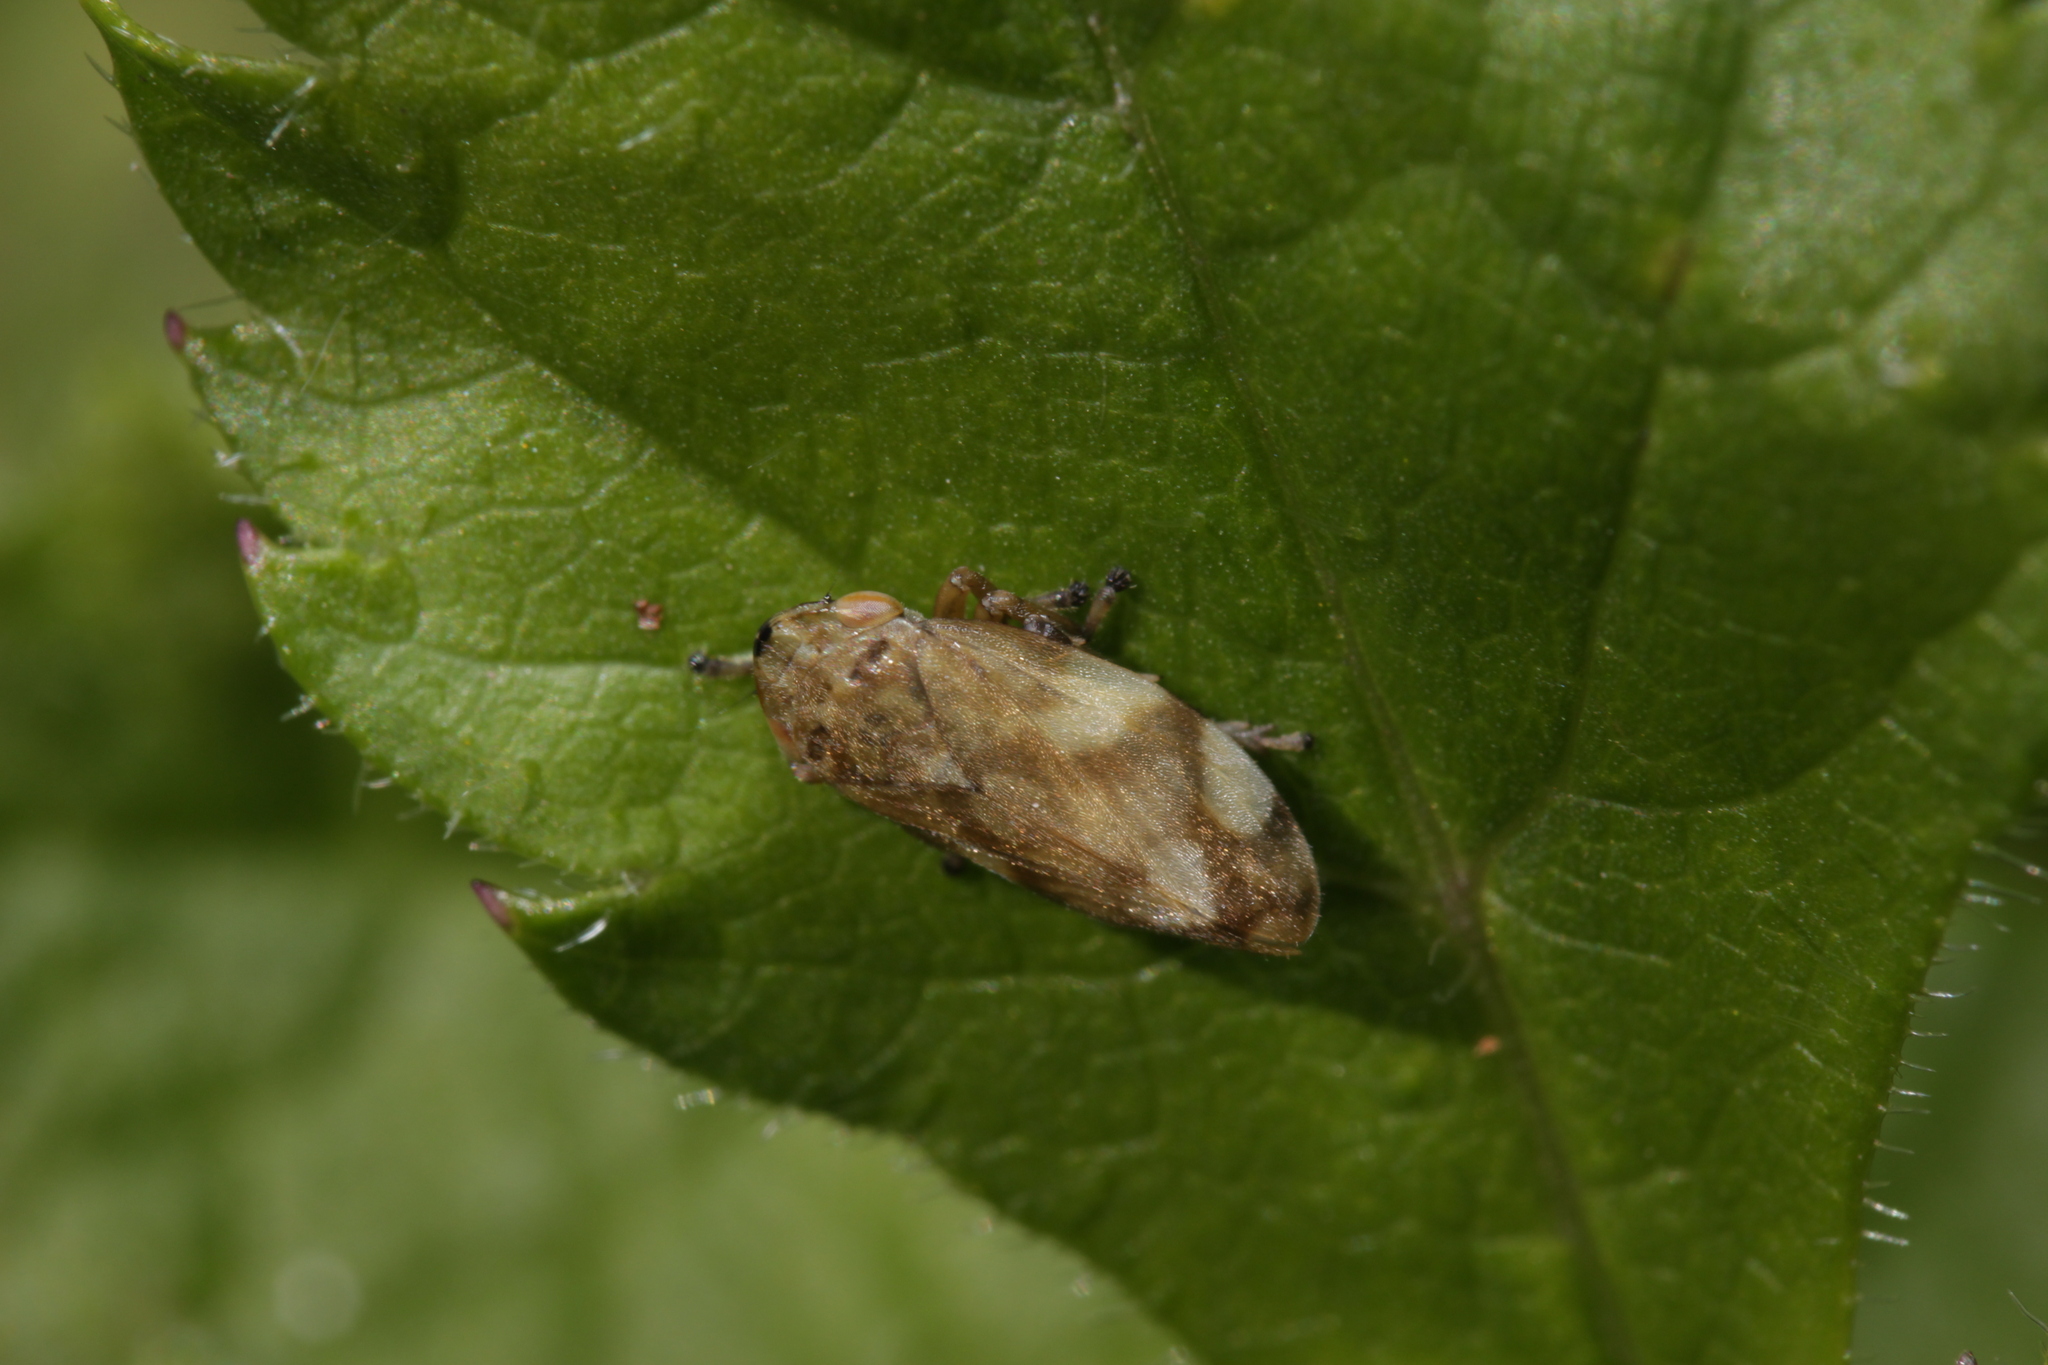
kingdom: Animalia
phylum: Arthropoda
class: Insecta
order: Hemiptera
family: Aphrophoridae
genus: Philaenus
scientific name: Philaenus spumarius
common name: Meadow spittlebug
